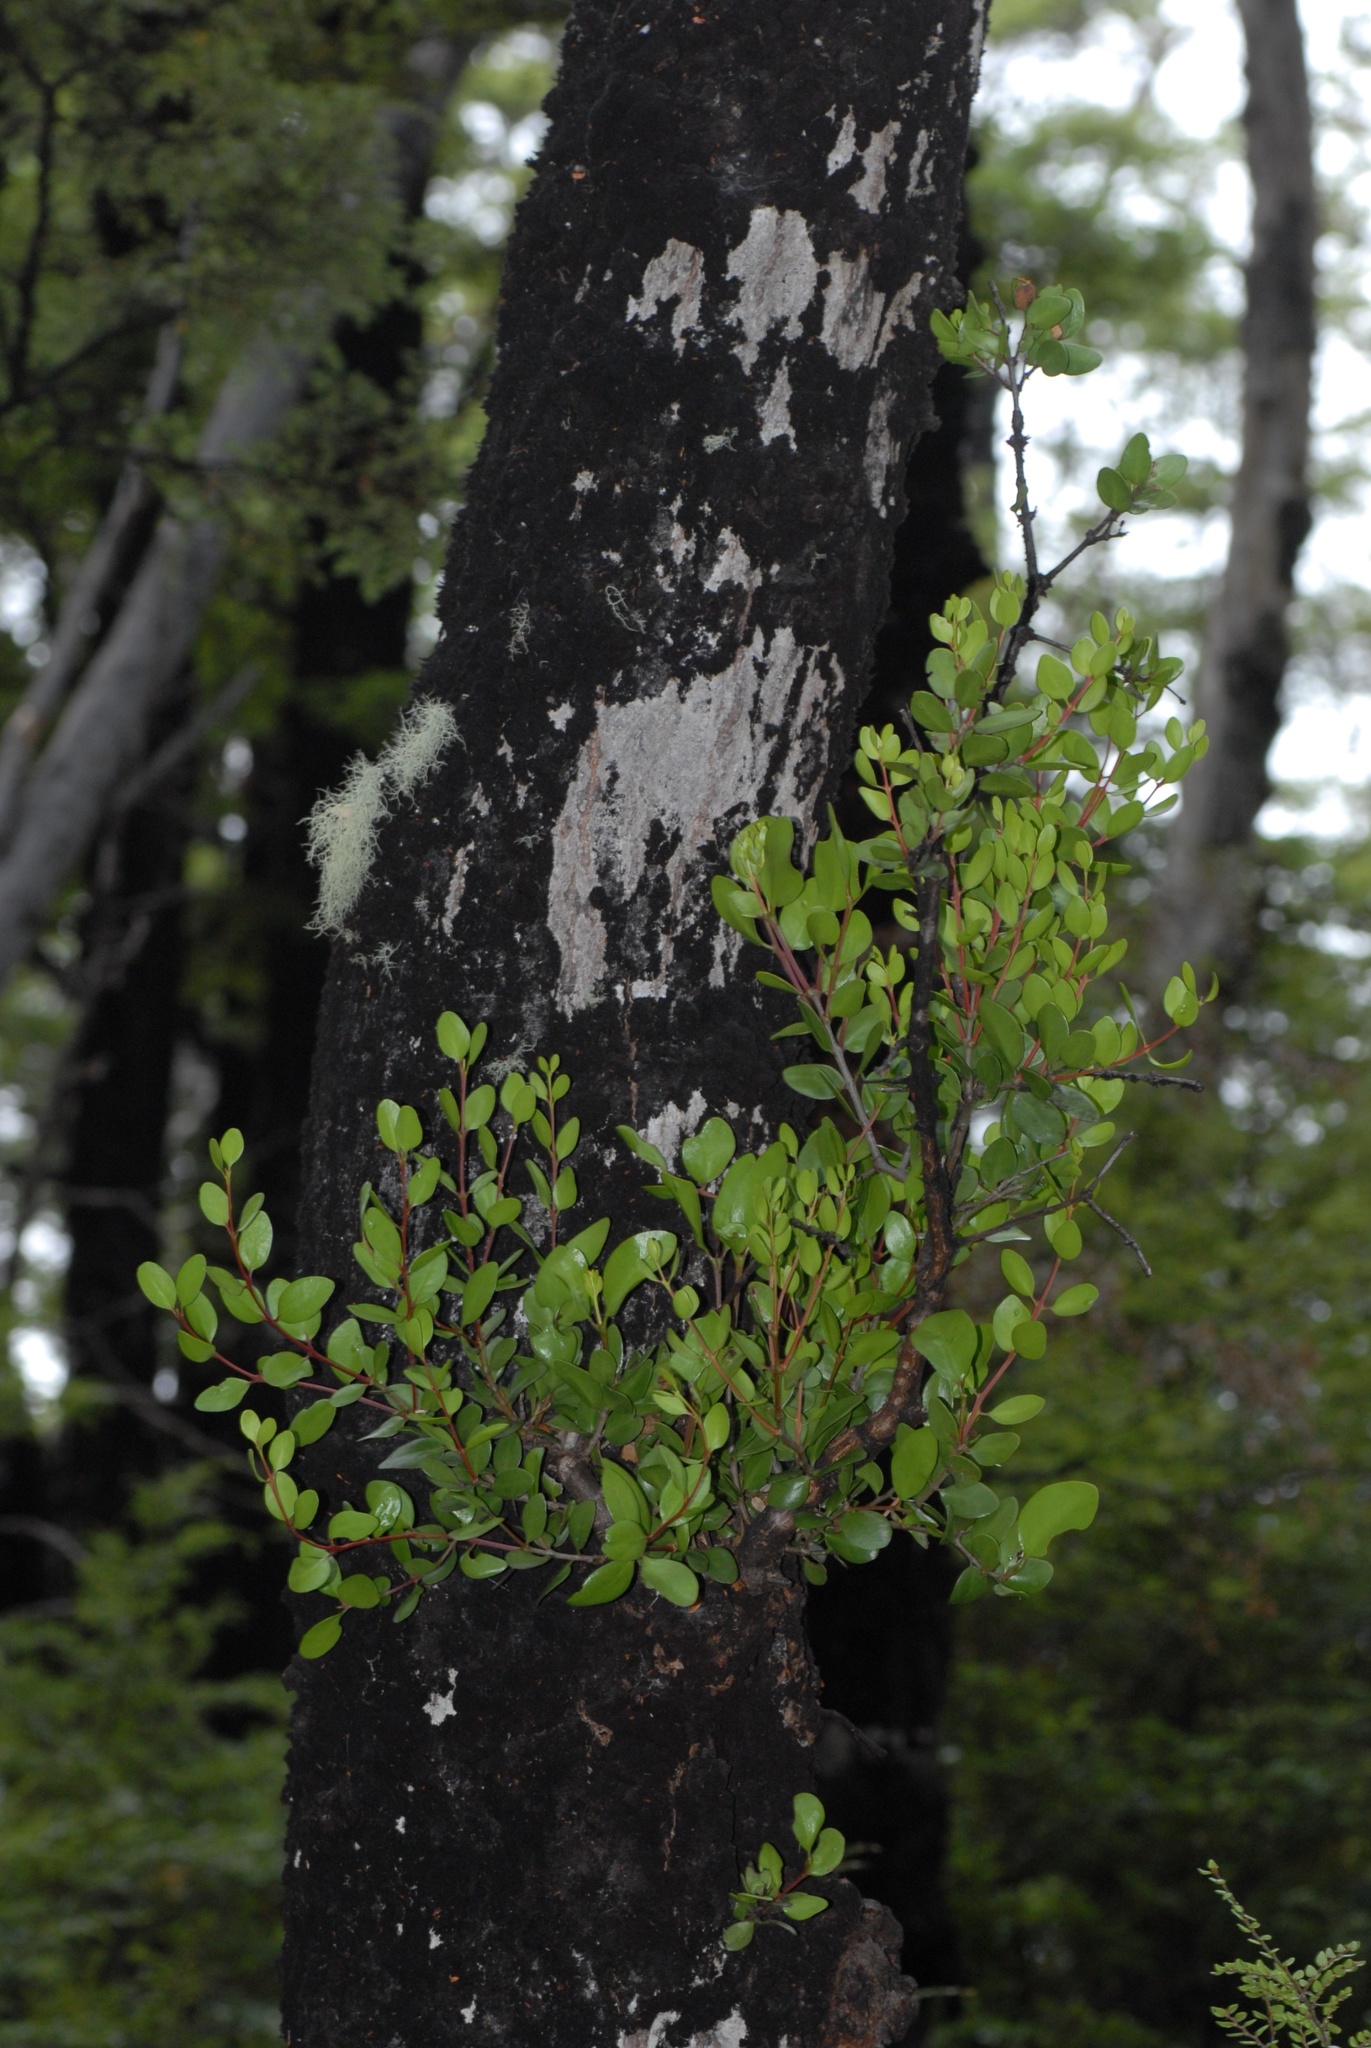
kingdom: Plantae
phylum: Tracheophyta
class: Magnoliopsida
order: Santalales
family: Loranthaceae
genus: Peraxilla
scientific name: Peraxilla tetrapetala
